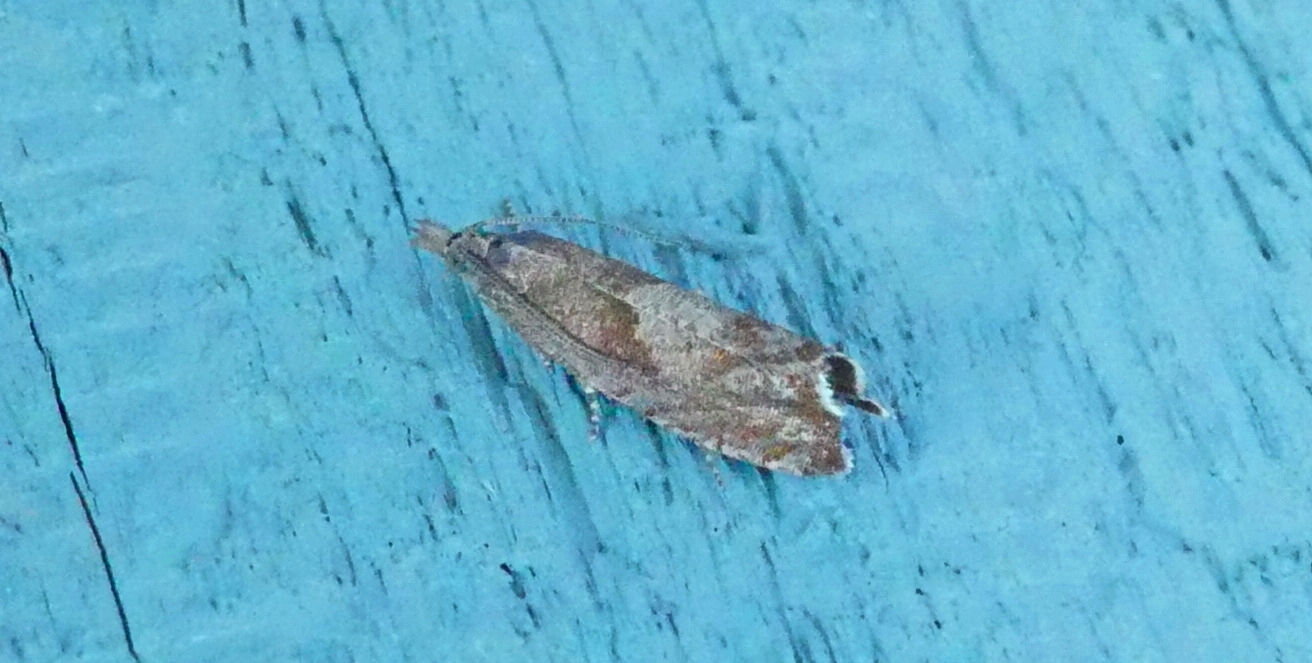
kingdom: Animalia
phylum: Arthropoda
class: Insecta
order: Lepidoptera
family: Tortricidae
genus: Dichrorampha
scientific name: Dichrorampha acuminatana
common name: Sharp-winged drill
